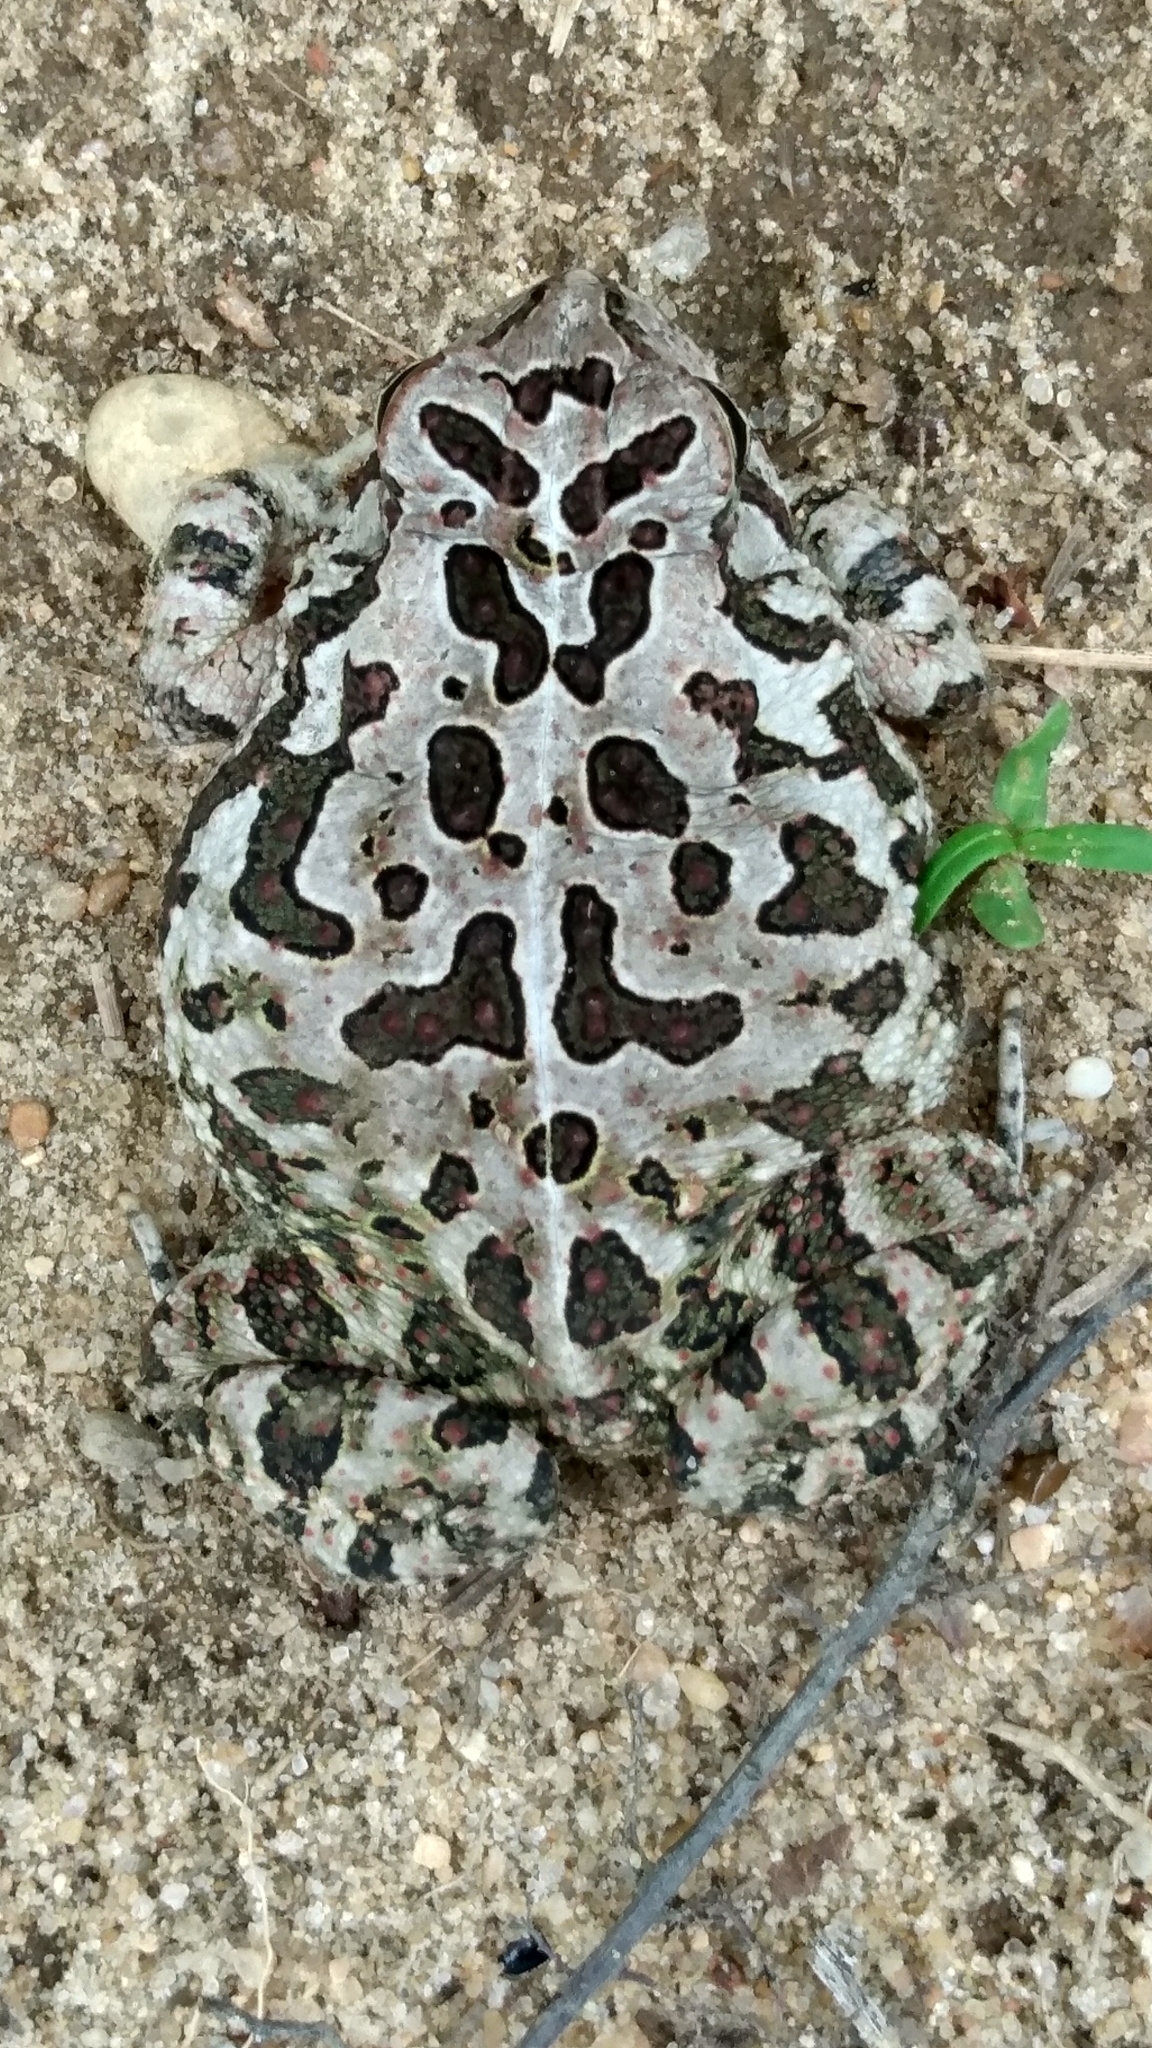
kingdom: Animalia
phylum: Chordata
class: Amphibia
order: Anura
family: Bufonidae
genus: Anaxyrus
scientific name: Anaxyrus fowleri
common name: Fowler's toad
